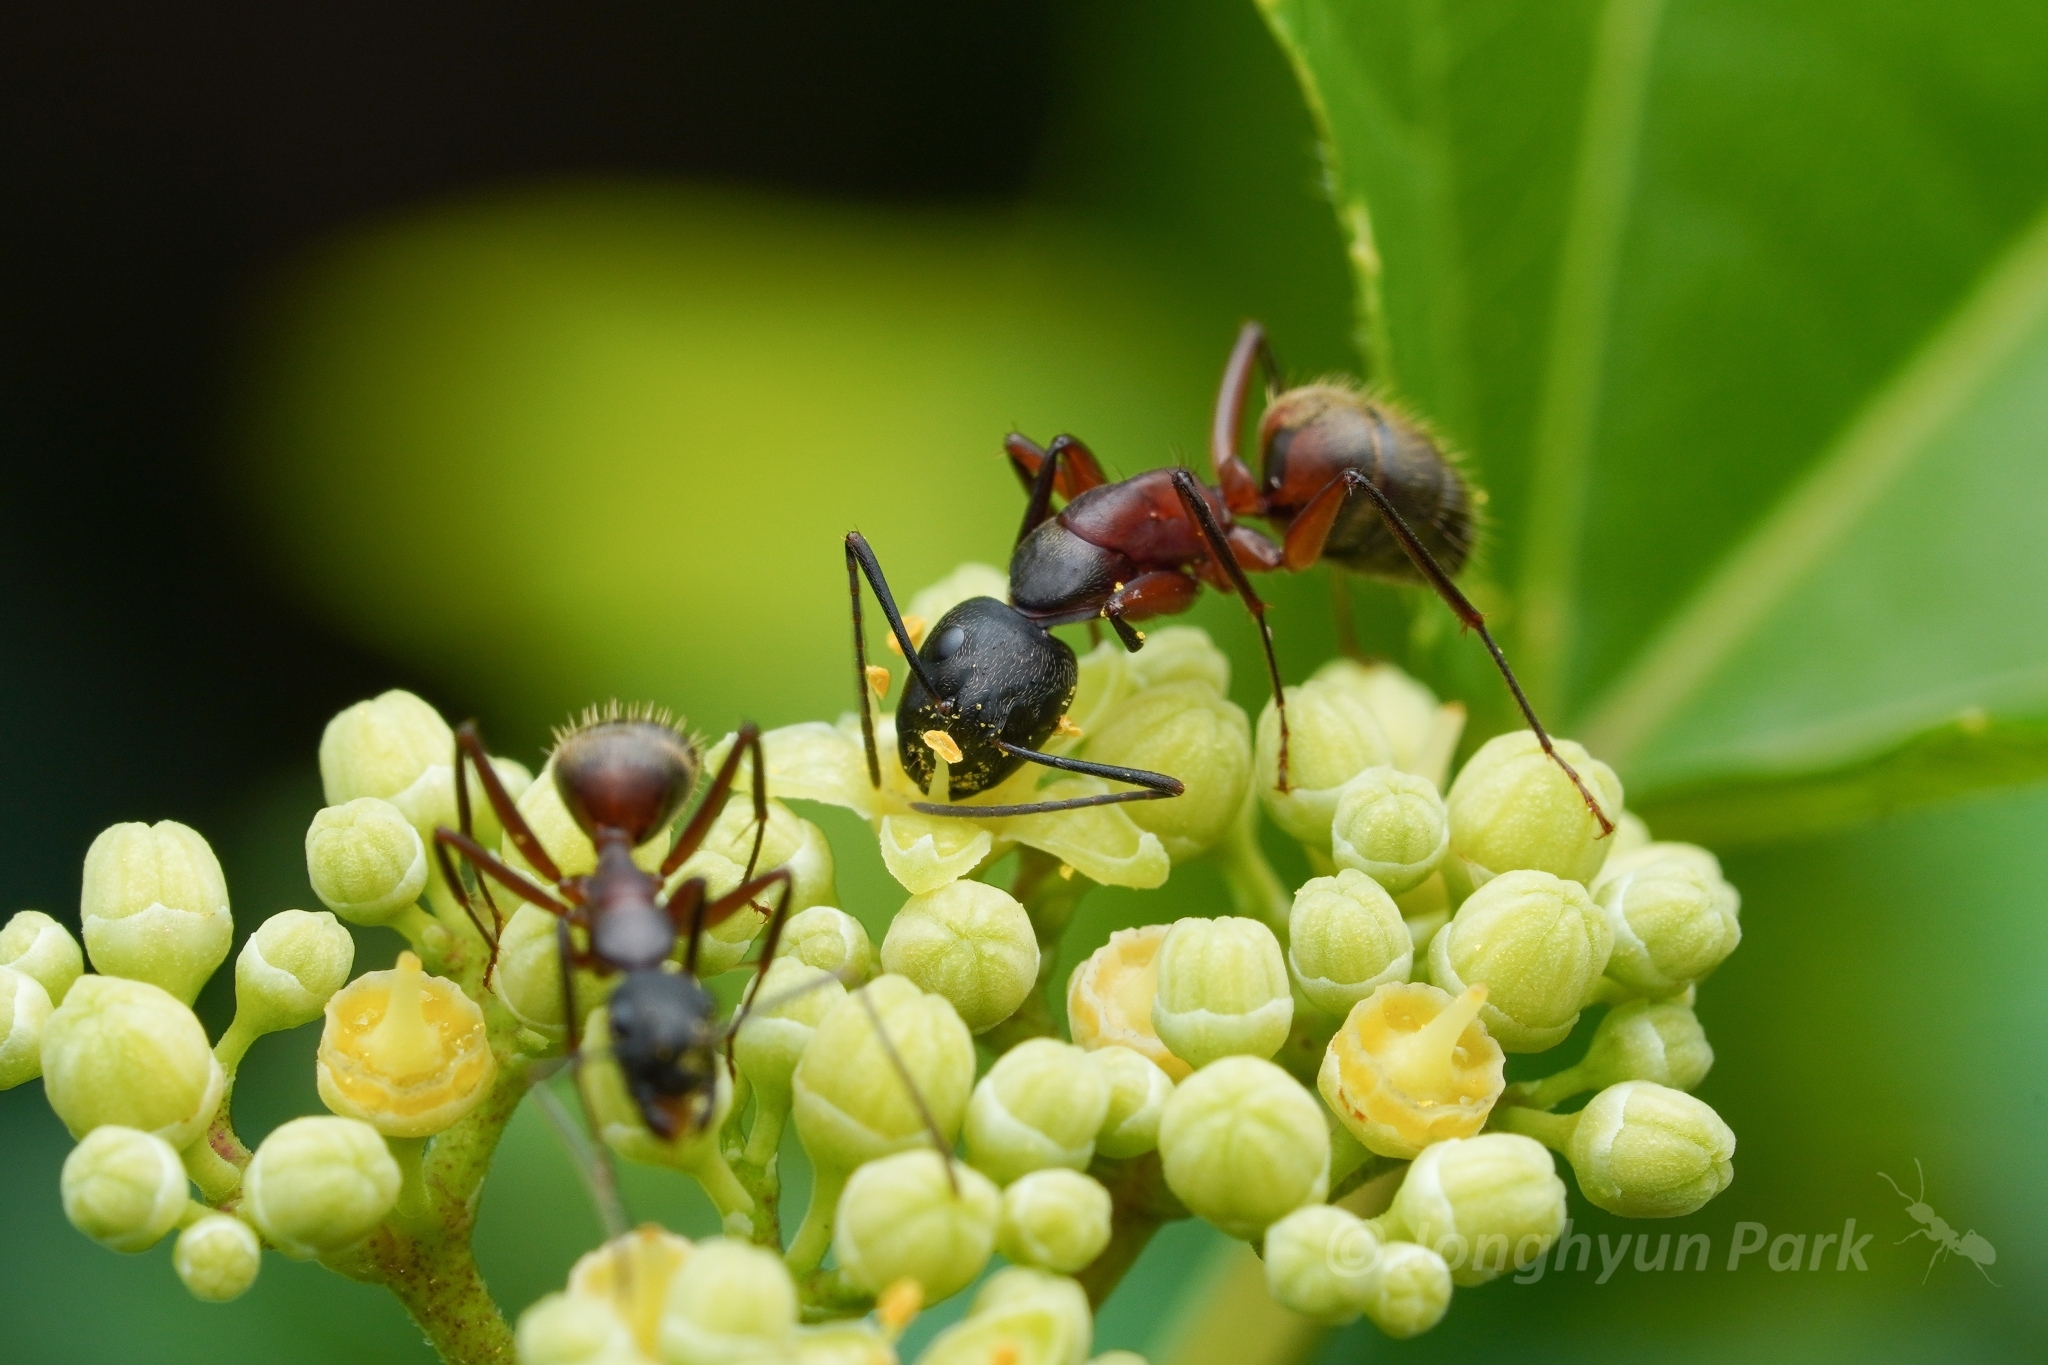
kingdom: Animalia
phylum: Arthropoda
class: Insecta
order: Hymenoptera
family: Formicidae
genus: Camponotus
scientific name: Camponotus chromaiodes
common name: Red carpenter ant
